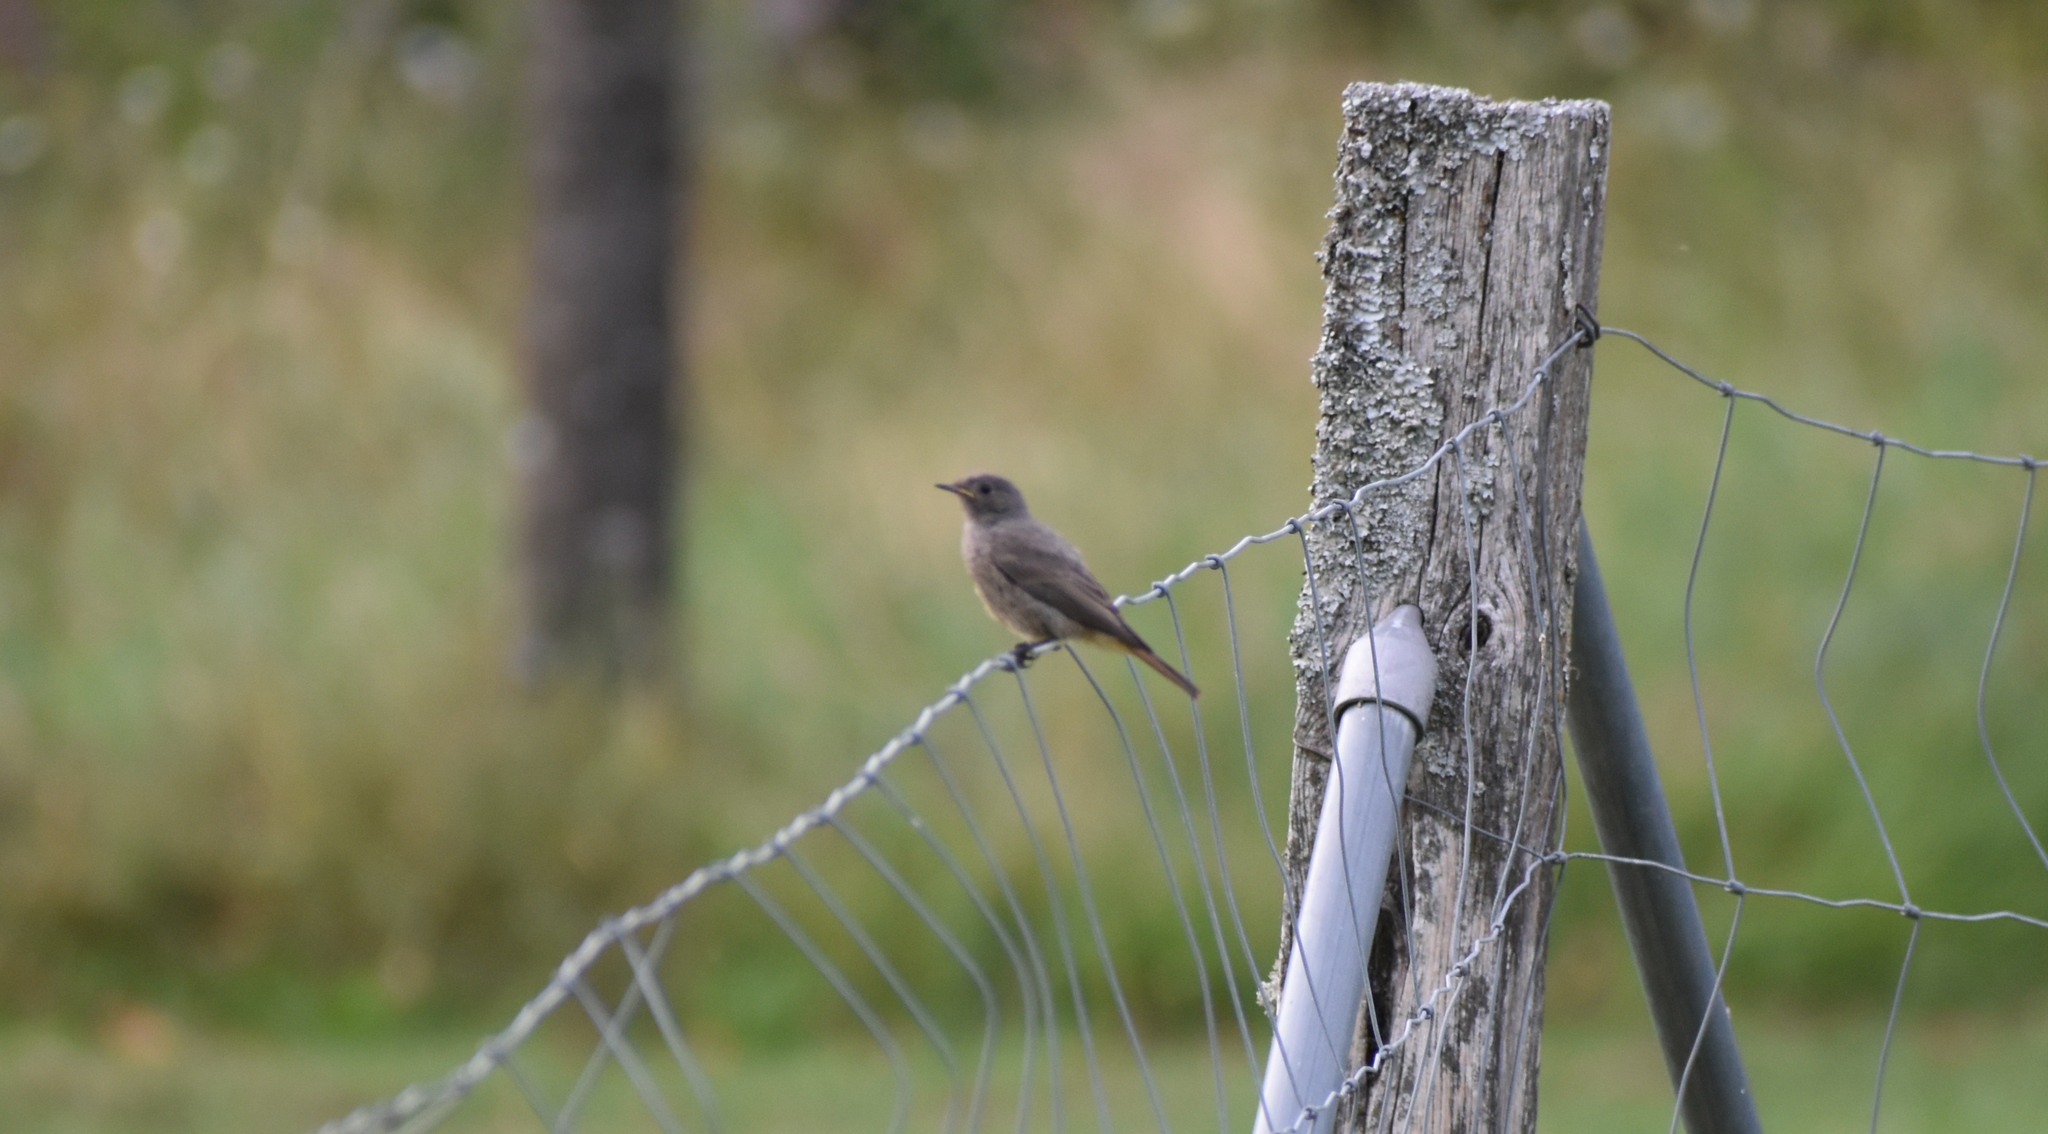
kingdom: Animalia
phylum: Chordata
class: Aves
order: Passeriformes
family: Muscicapidae
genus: Phoenicurus
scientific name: Phoenicurus ochruros
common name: Black redstart
